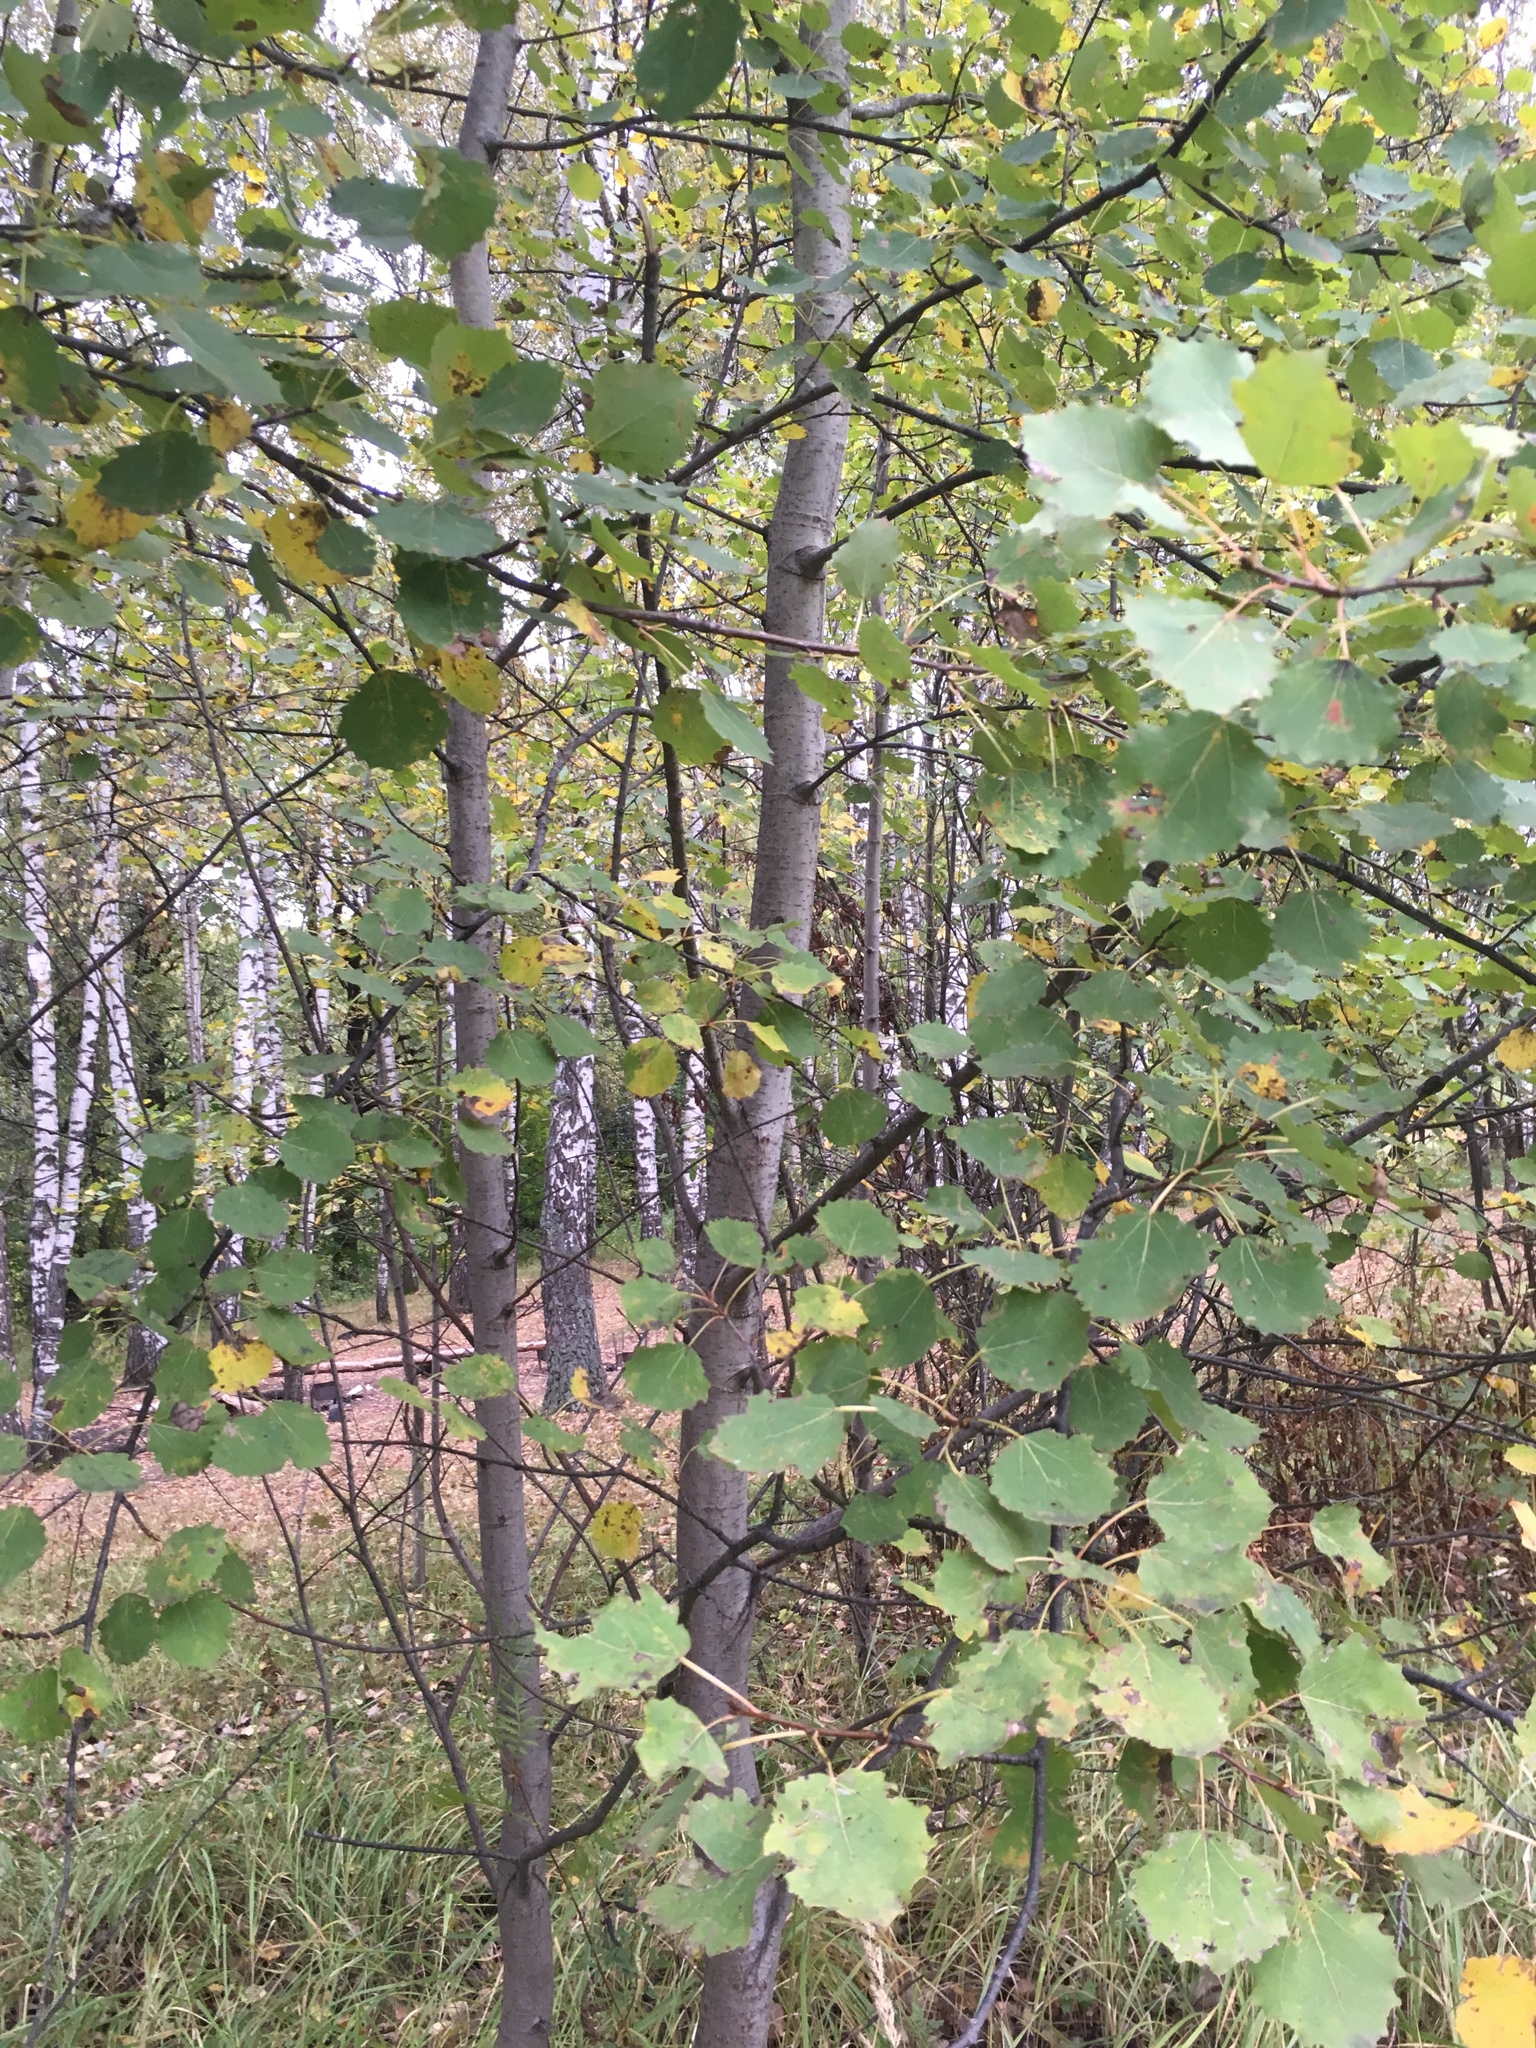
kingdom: Plantae
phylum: Tracheophyta
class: Magnoliopsida
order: Malpighiales
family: Salicaceae
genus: Populus
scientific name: Populus tremula
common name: European aspen
